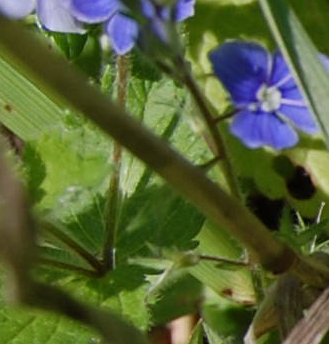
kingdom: Plantae
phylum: Tracheophyta
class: Magnoliopsida
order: Lamiales
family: Plantaginaceae
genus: Veronica
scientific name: Veronica chamaedrys
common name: Germander speedwell
